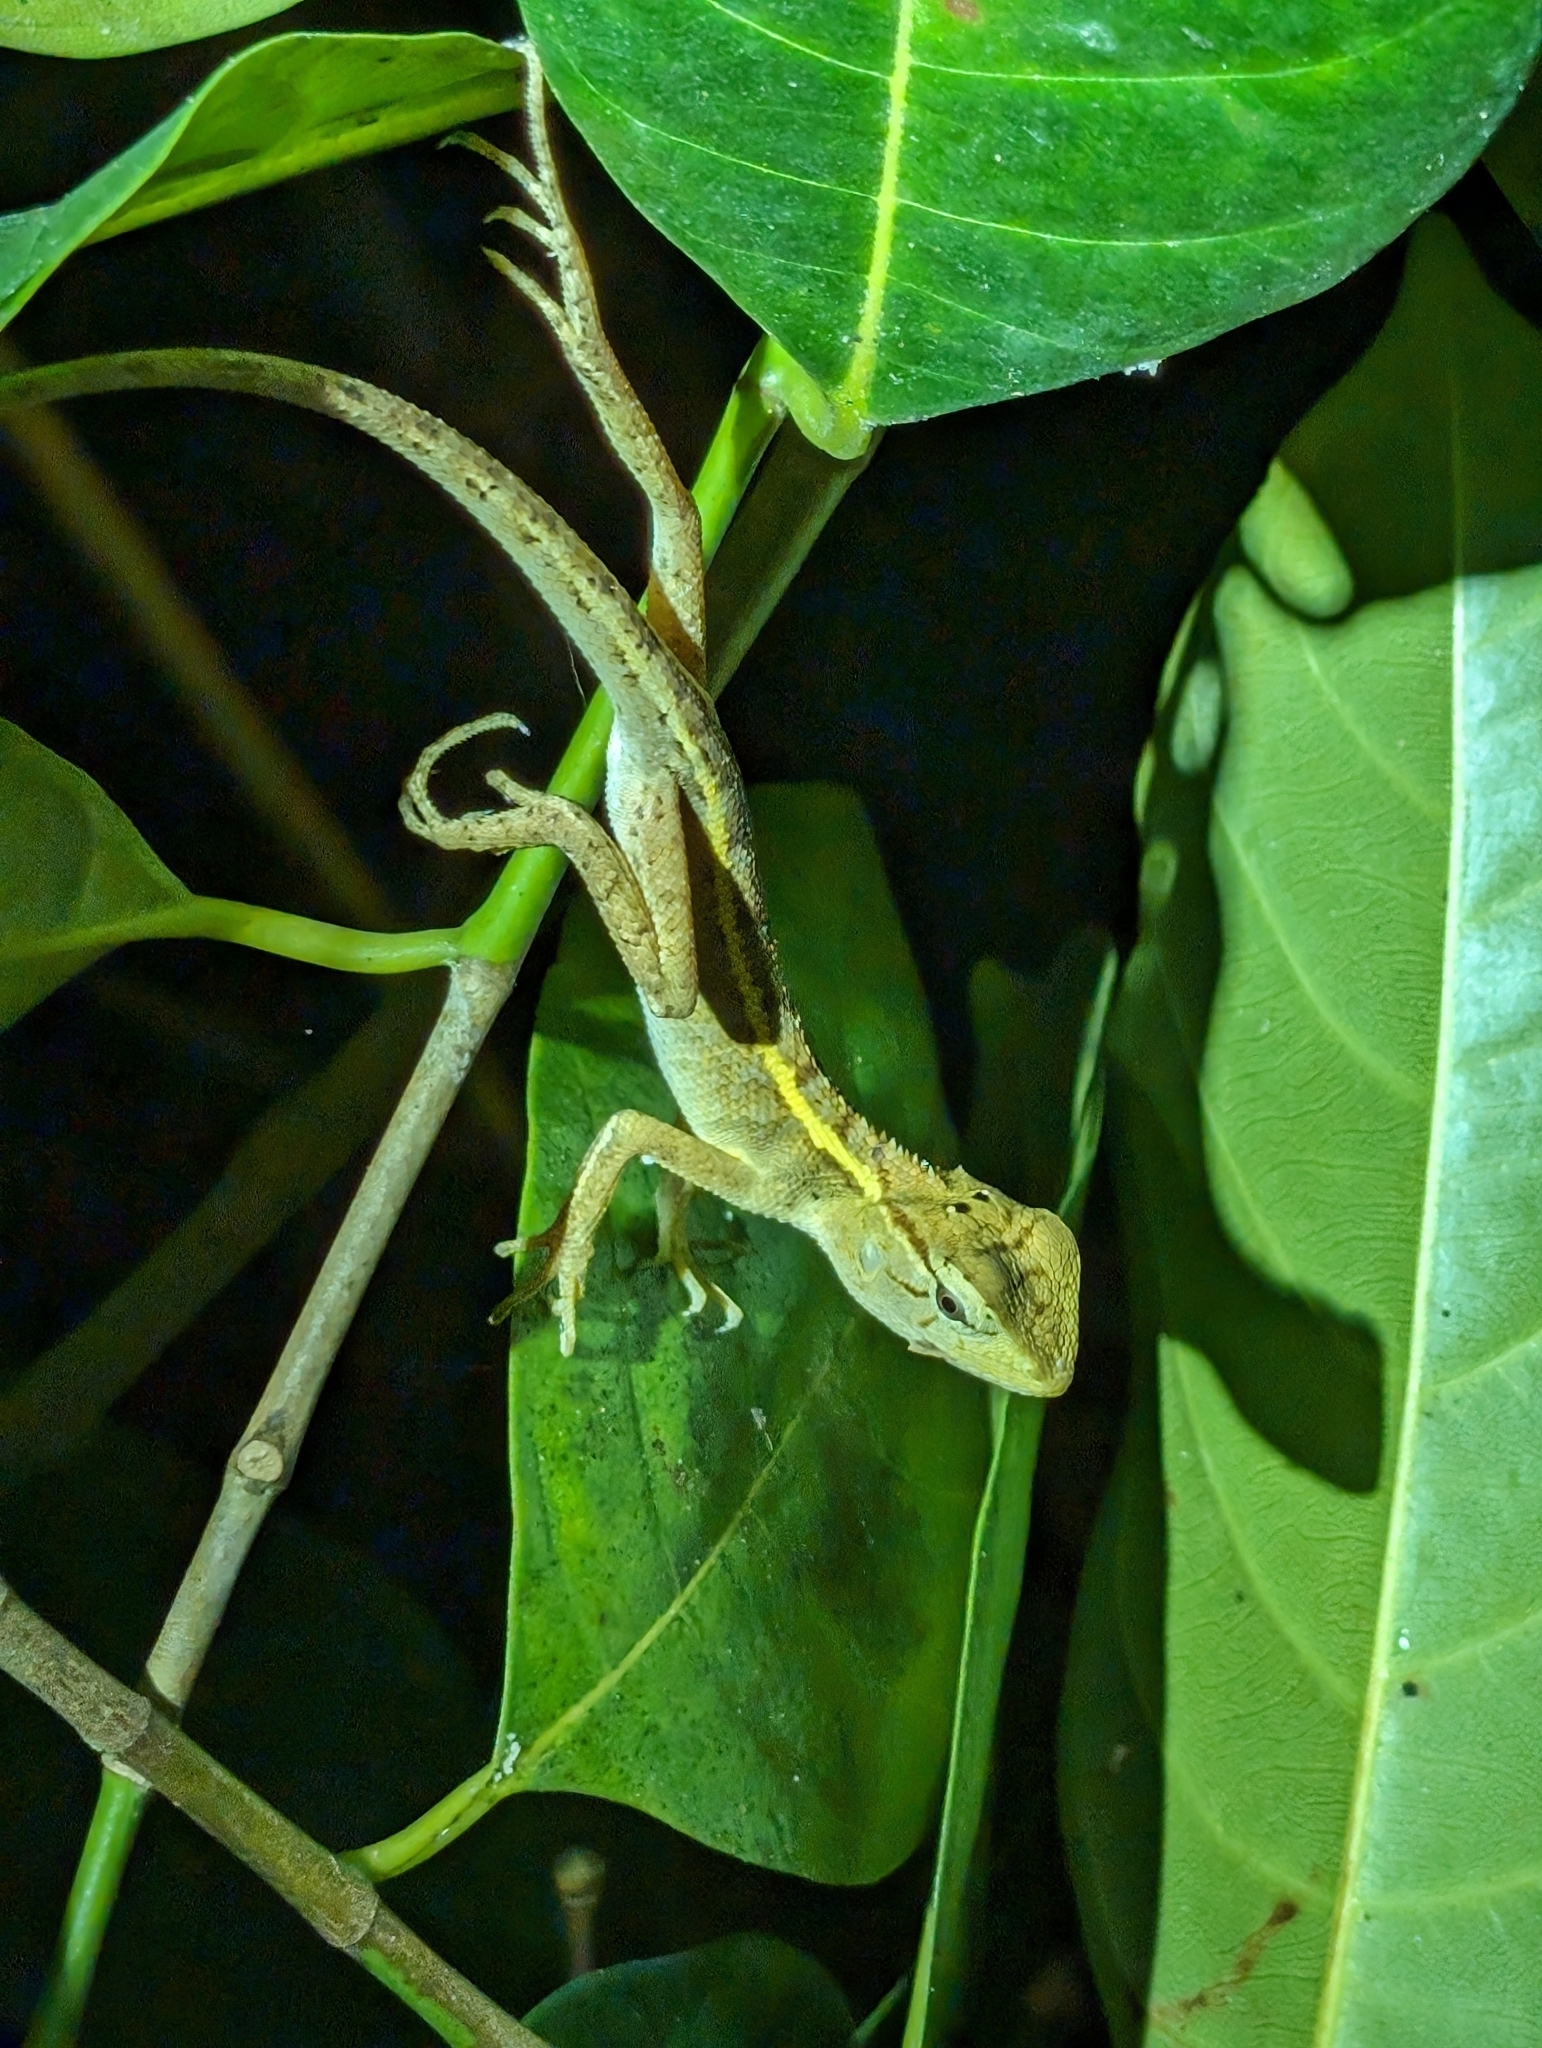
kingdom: Animalia
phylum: Chordata
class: Squamata
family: Agamidae
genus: Calotes
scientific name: Calotes versicolor
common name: Oriental garden lizard
